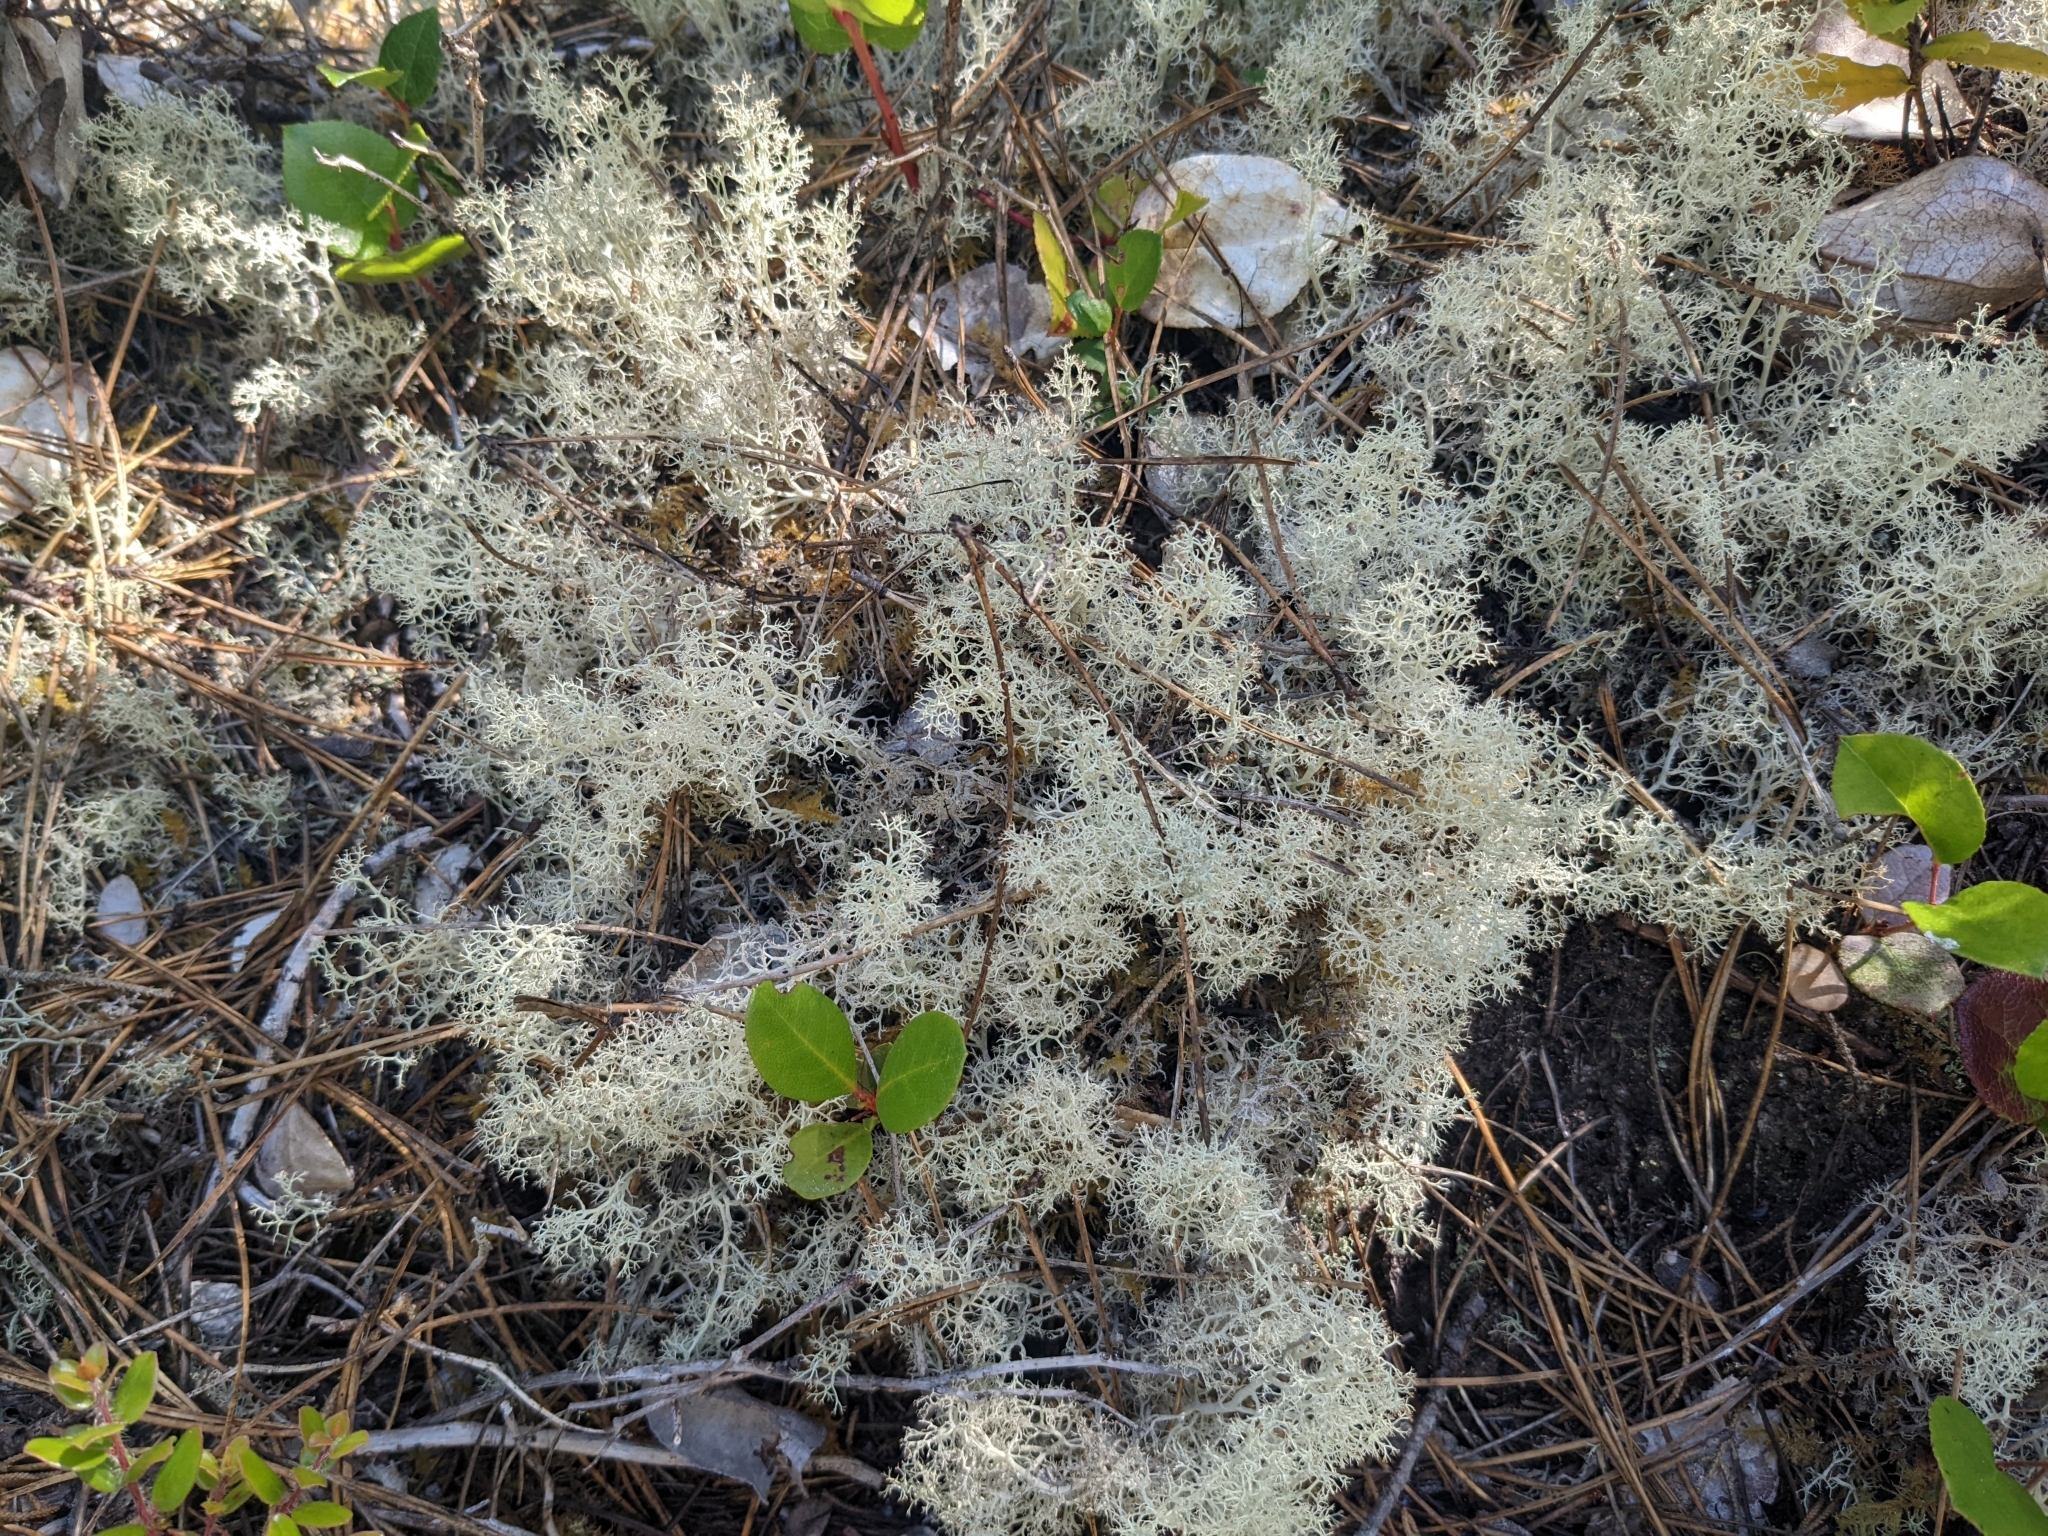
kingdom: Fungi
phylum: Ascomycota
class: Lecanoromycetes
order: Lecanorales
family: Cladoniaceae
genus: Cladonia
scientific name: Cladonia portentosa
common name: Reindeer lichen
